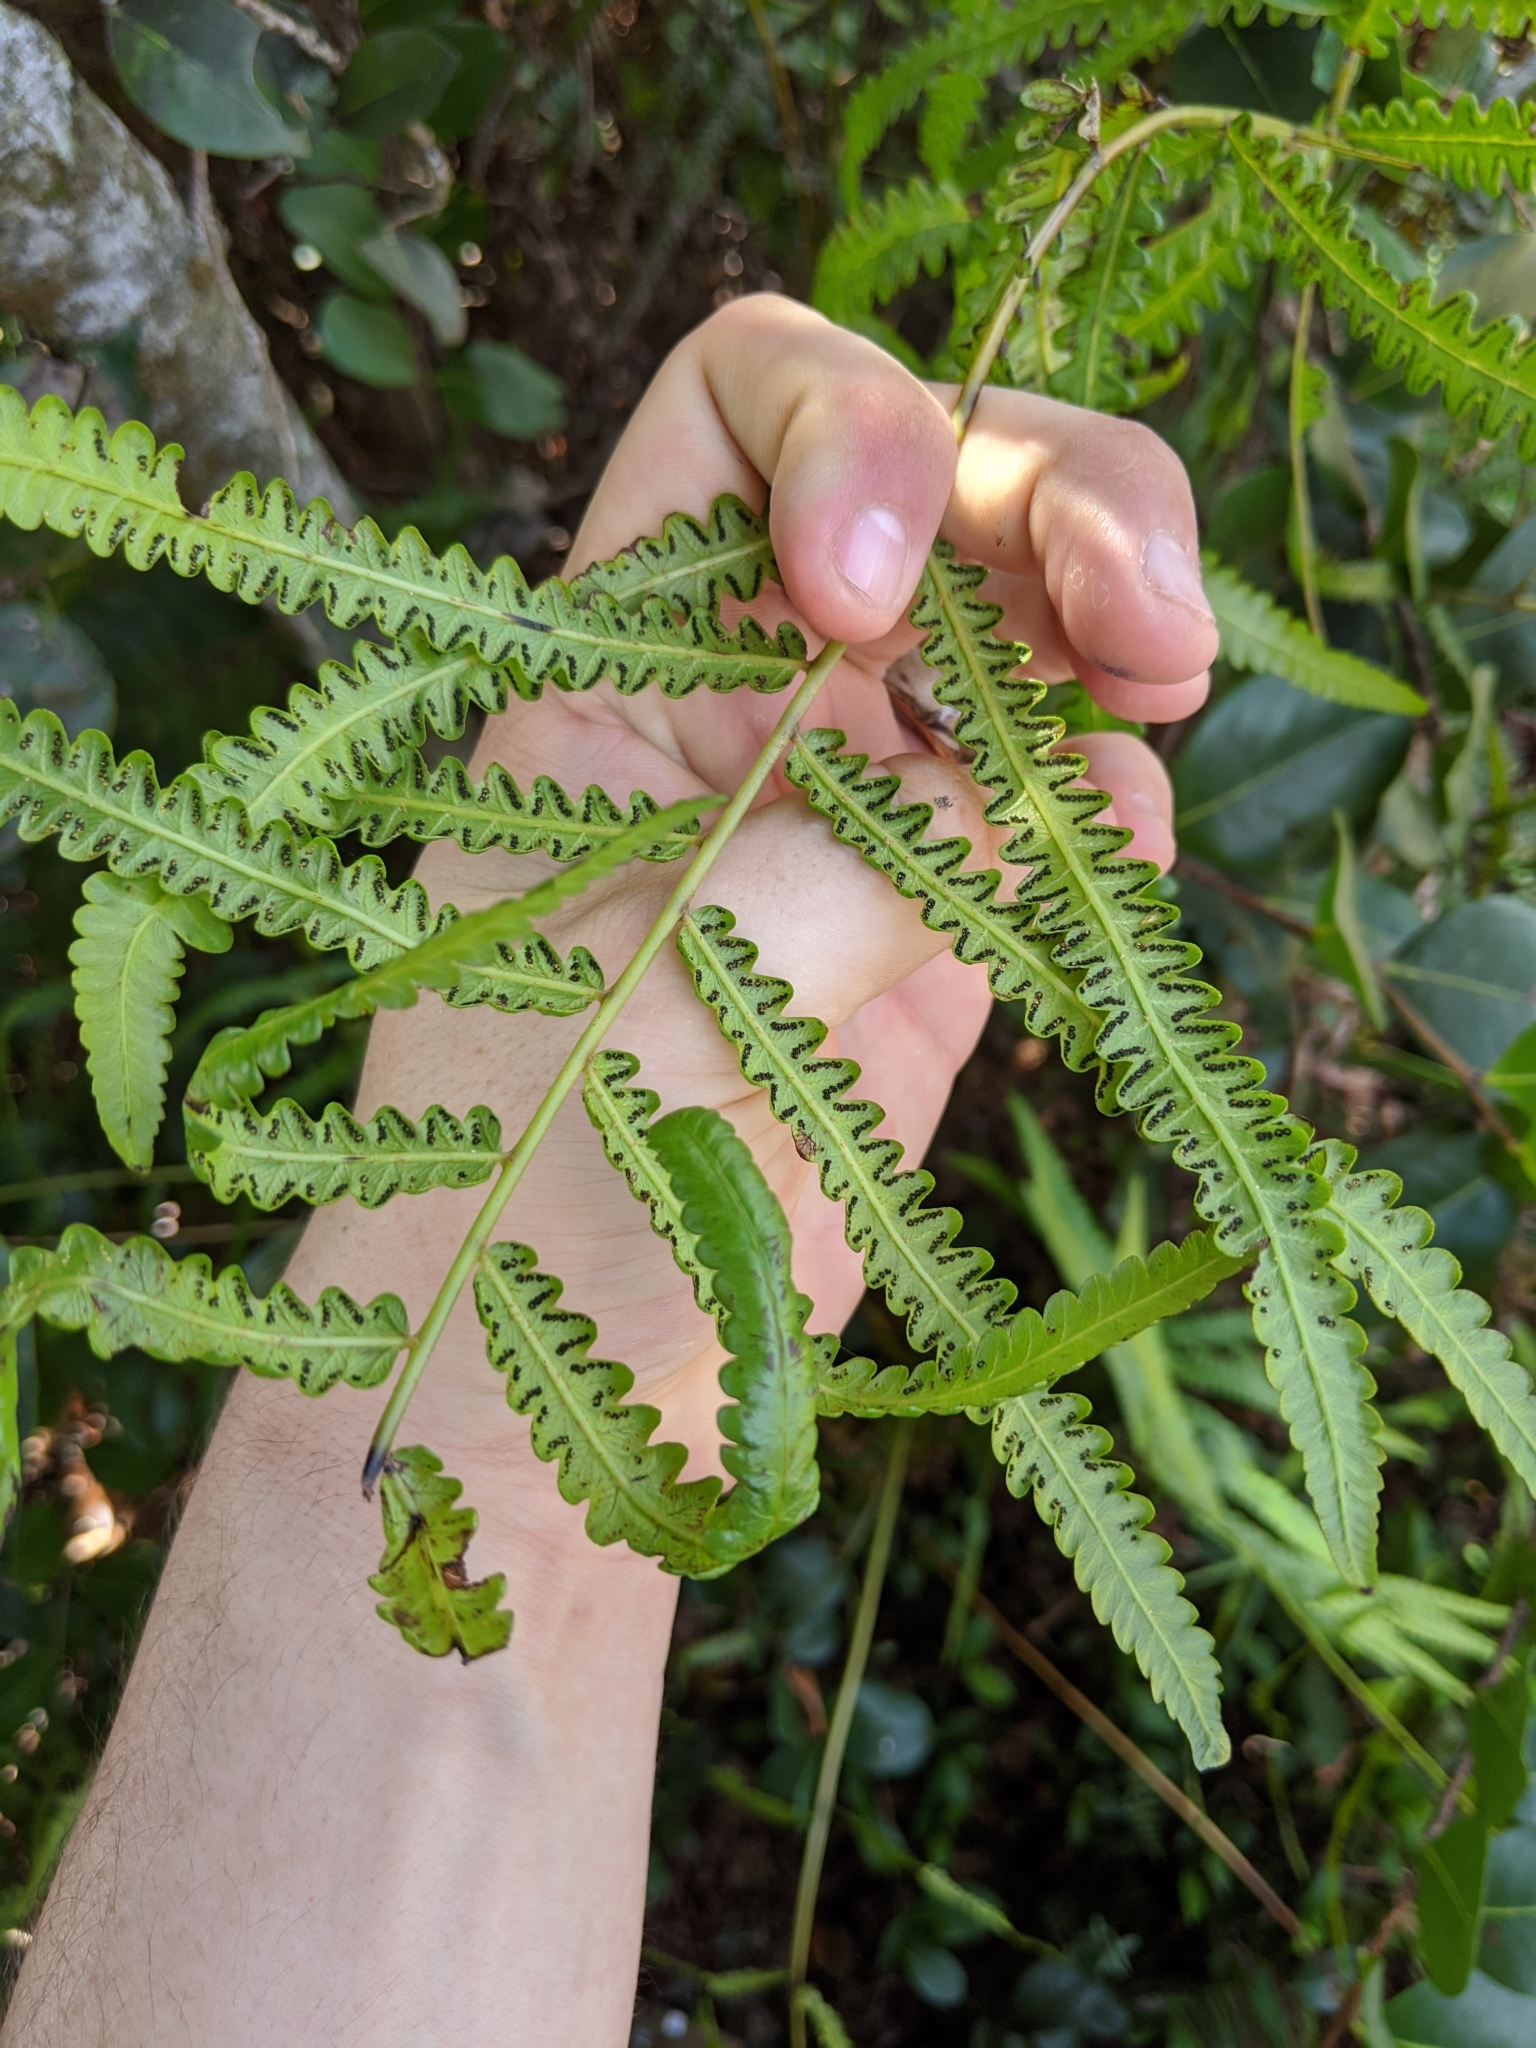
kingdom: Plantae
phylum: Tracheophyta
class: Polypodiopsida
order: Polypodiales
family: Thelypteridaceae
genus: Cyclosorus
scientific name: Cyclosorus interruptus
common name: Neke fern
